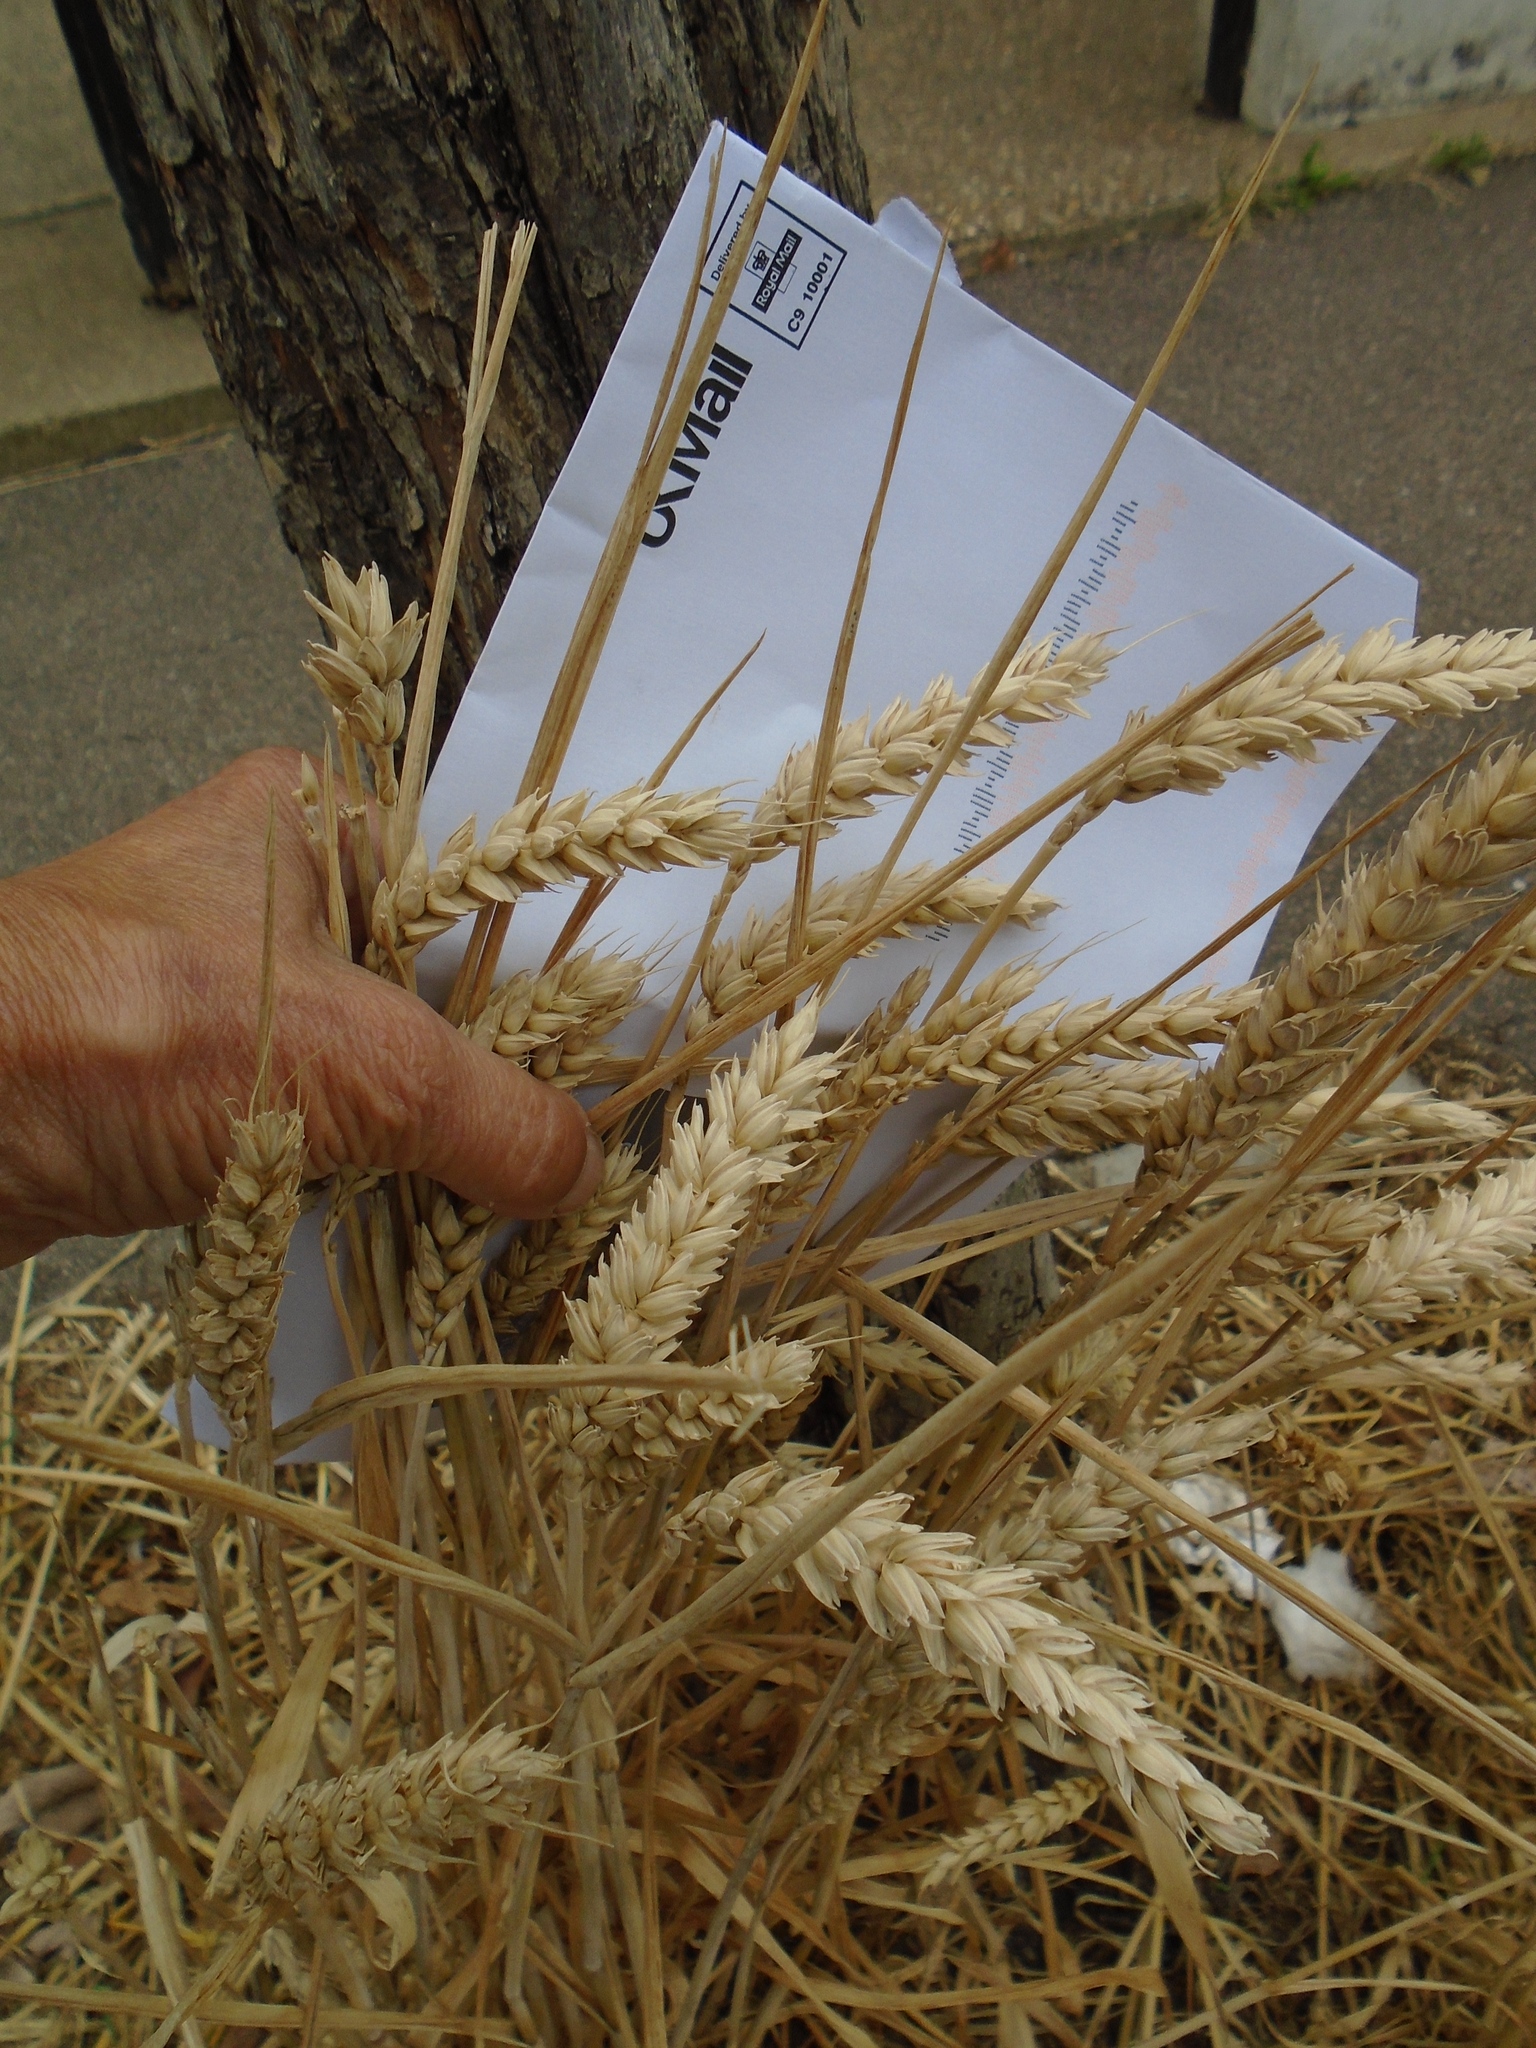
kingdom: Plantae
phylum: Tracheophyta
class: Liliopsida
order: Poales
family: Poaceae
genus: Triticum
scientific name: Triticum aestivum
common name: Common wheat
